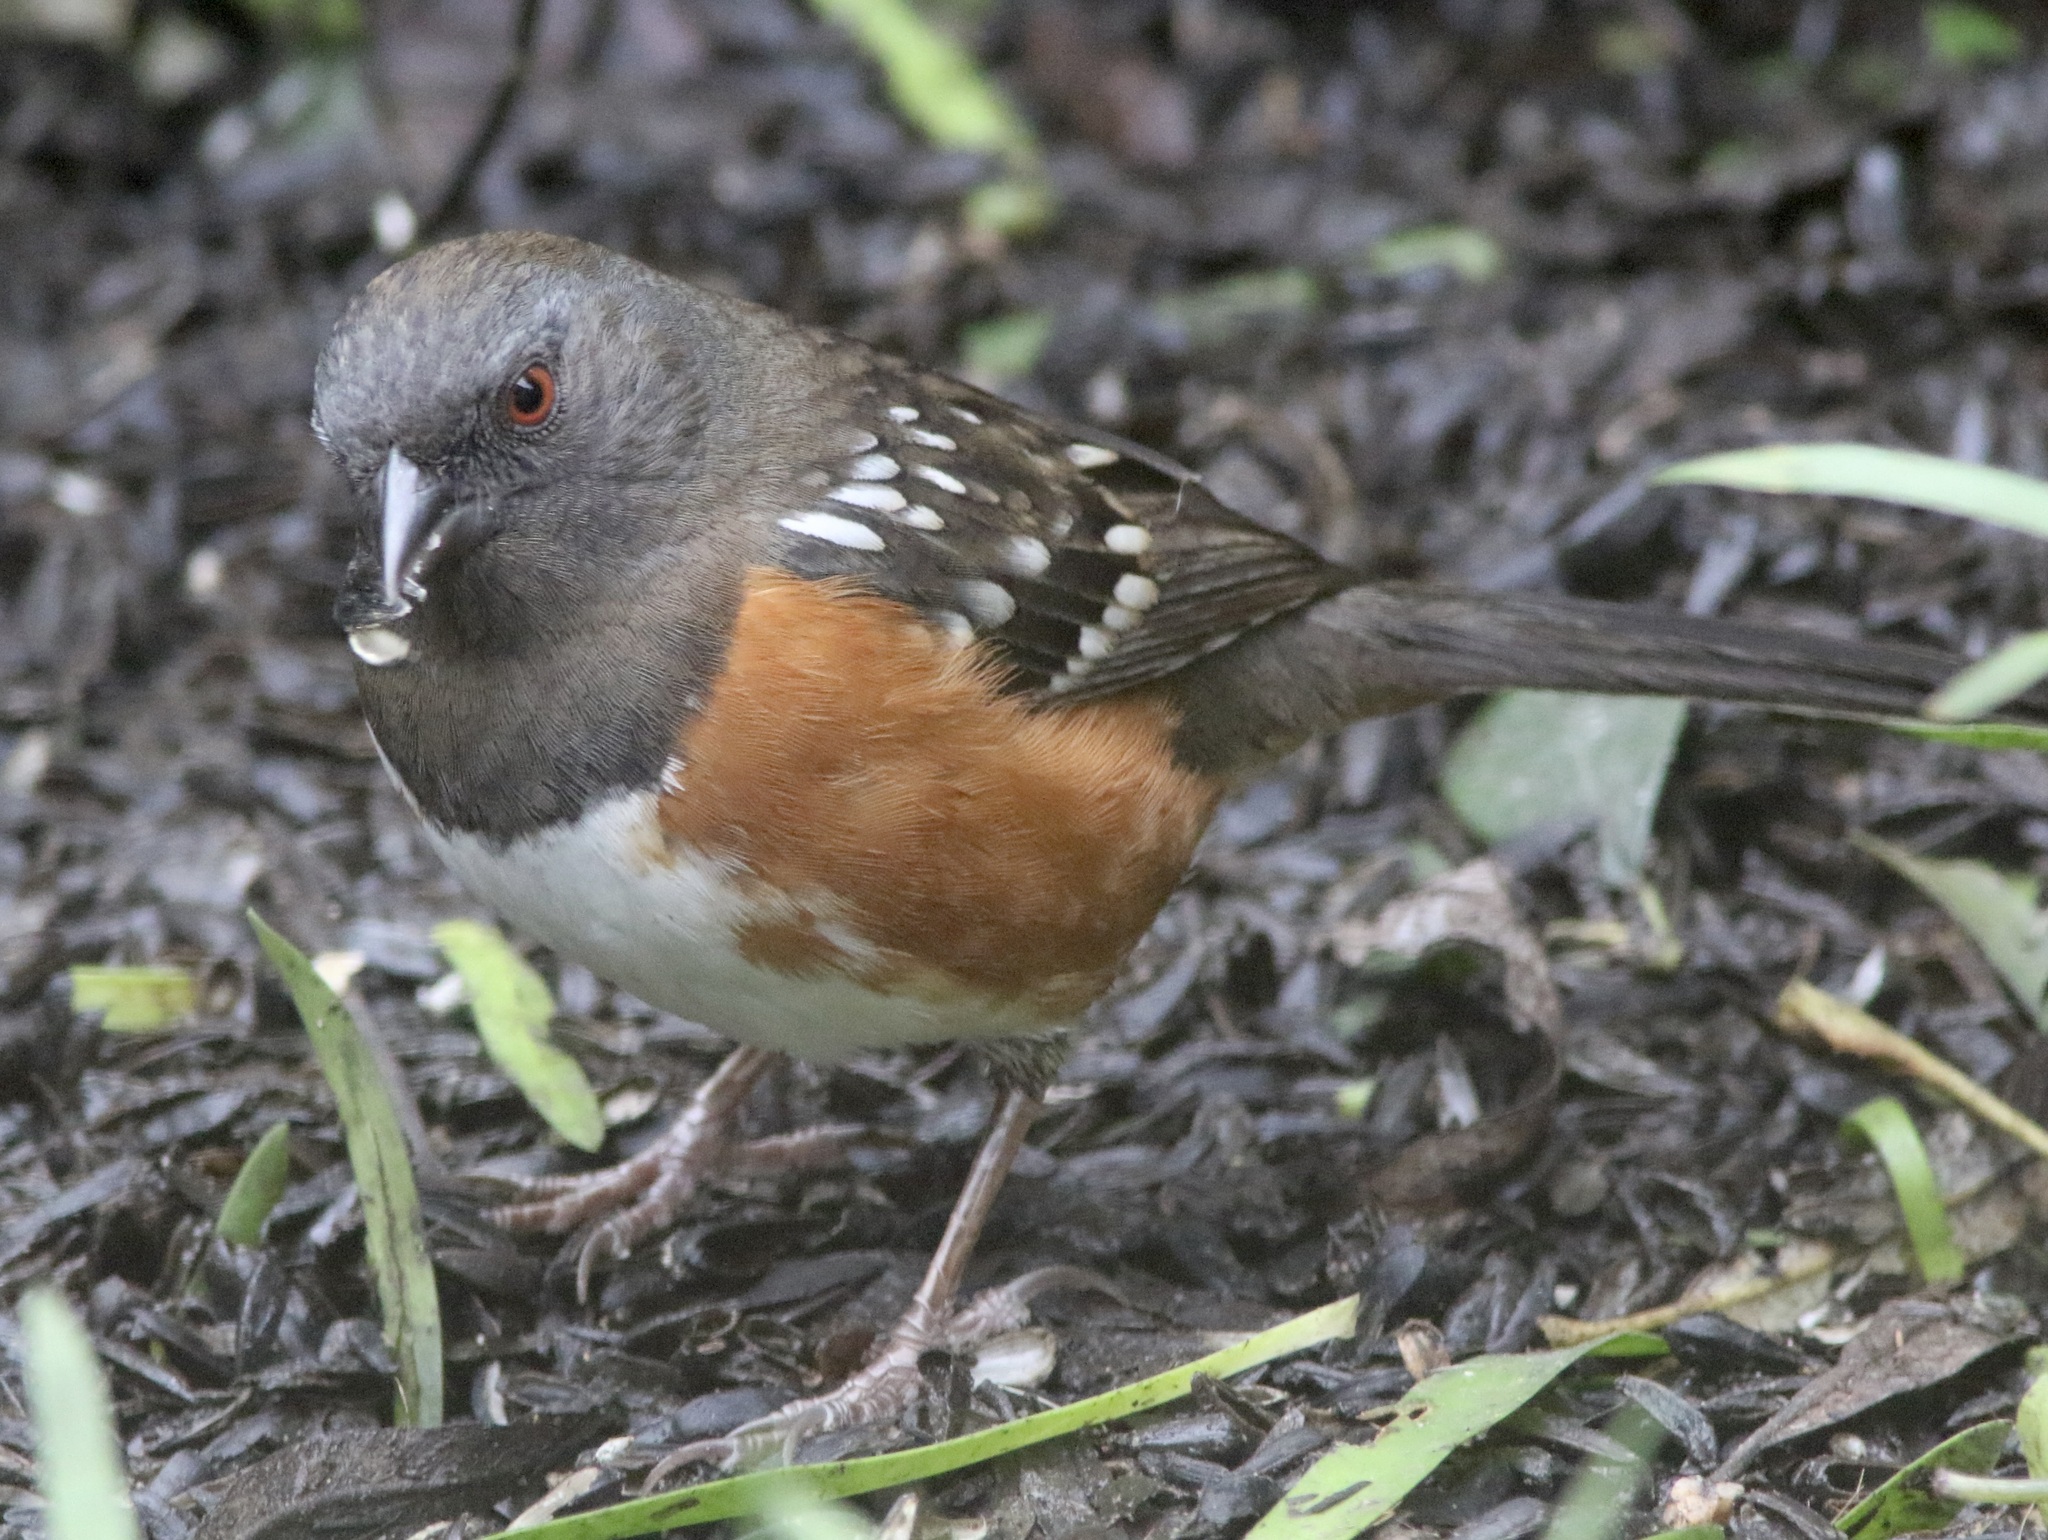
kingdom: Animalia
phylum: Chordata
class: Aves
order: Passeriformes
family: Passerellidae
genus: Pipilo
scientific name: Pipilo maculatus
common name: Spotted towhee
